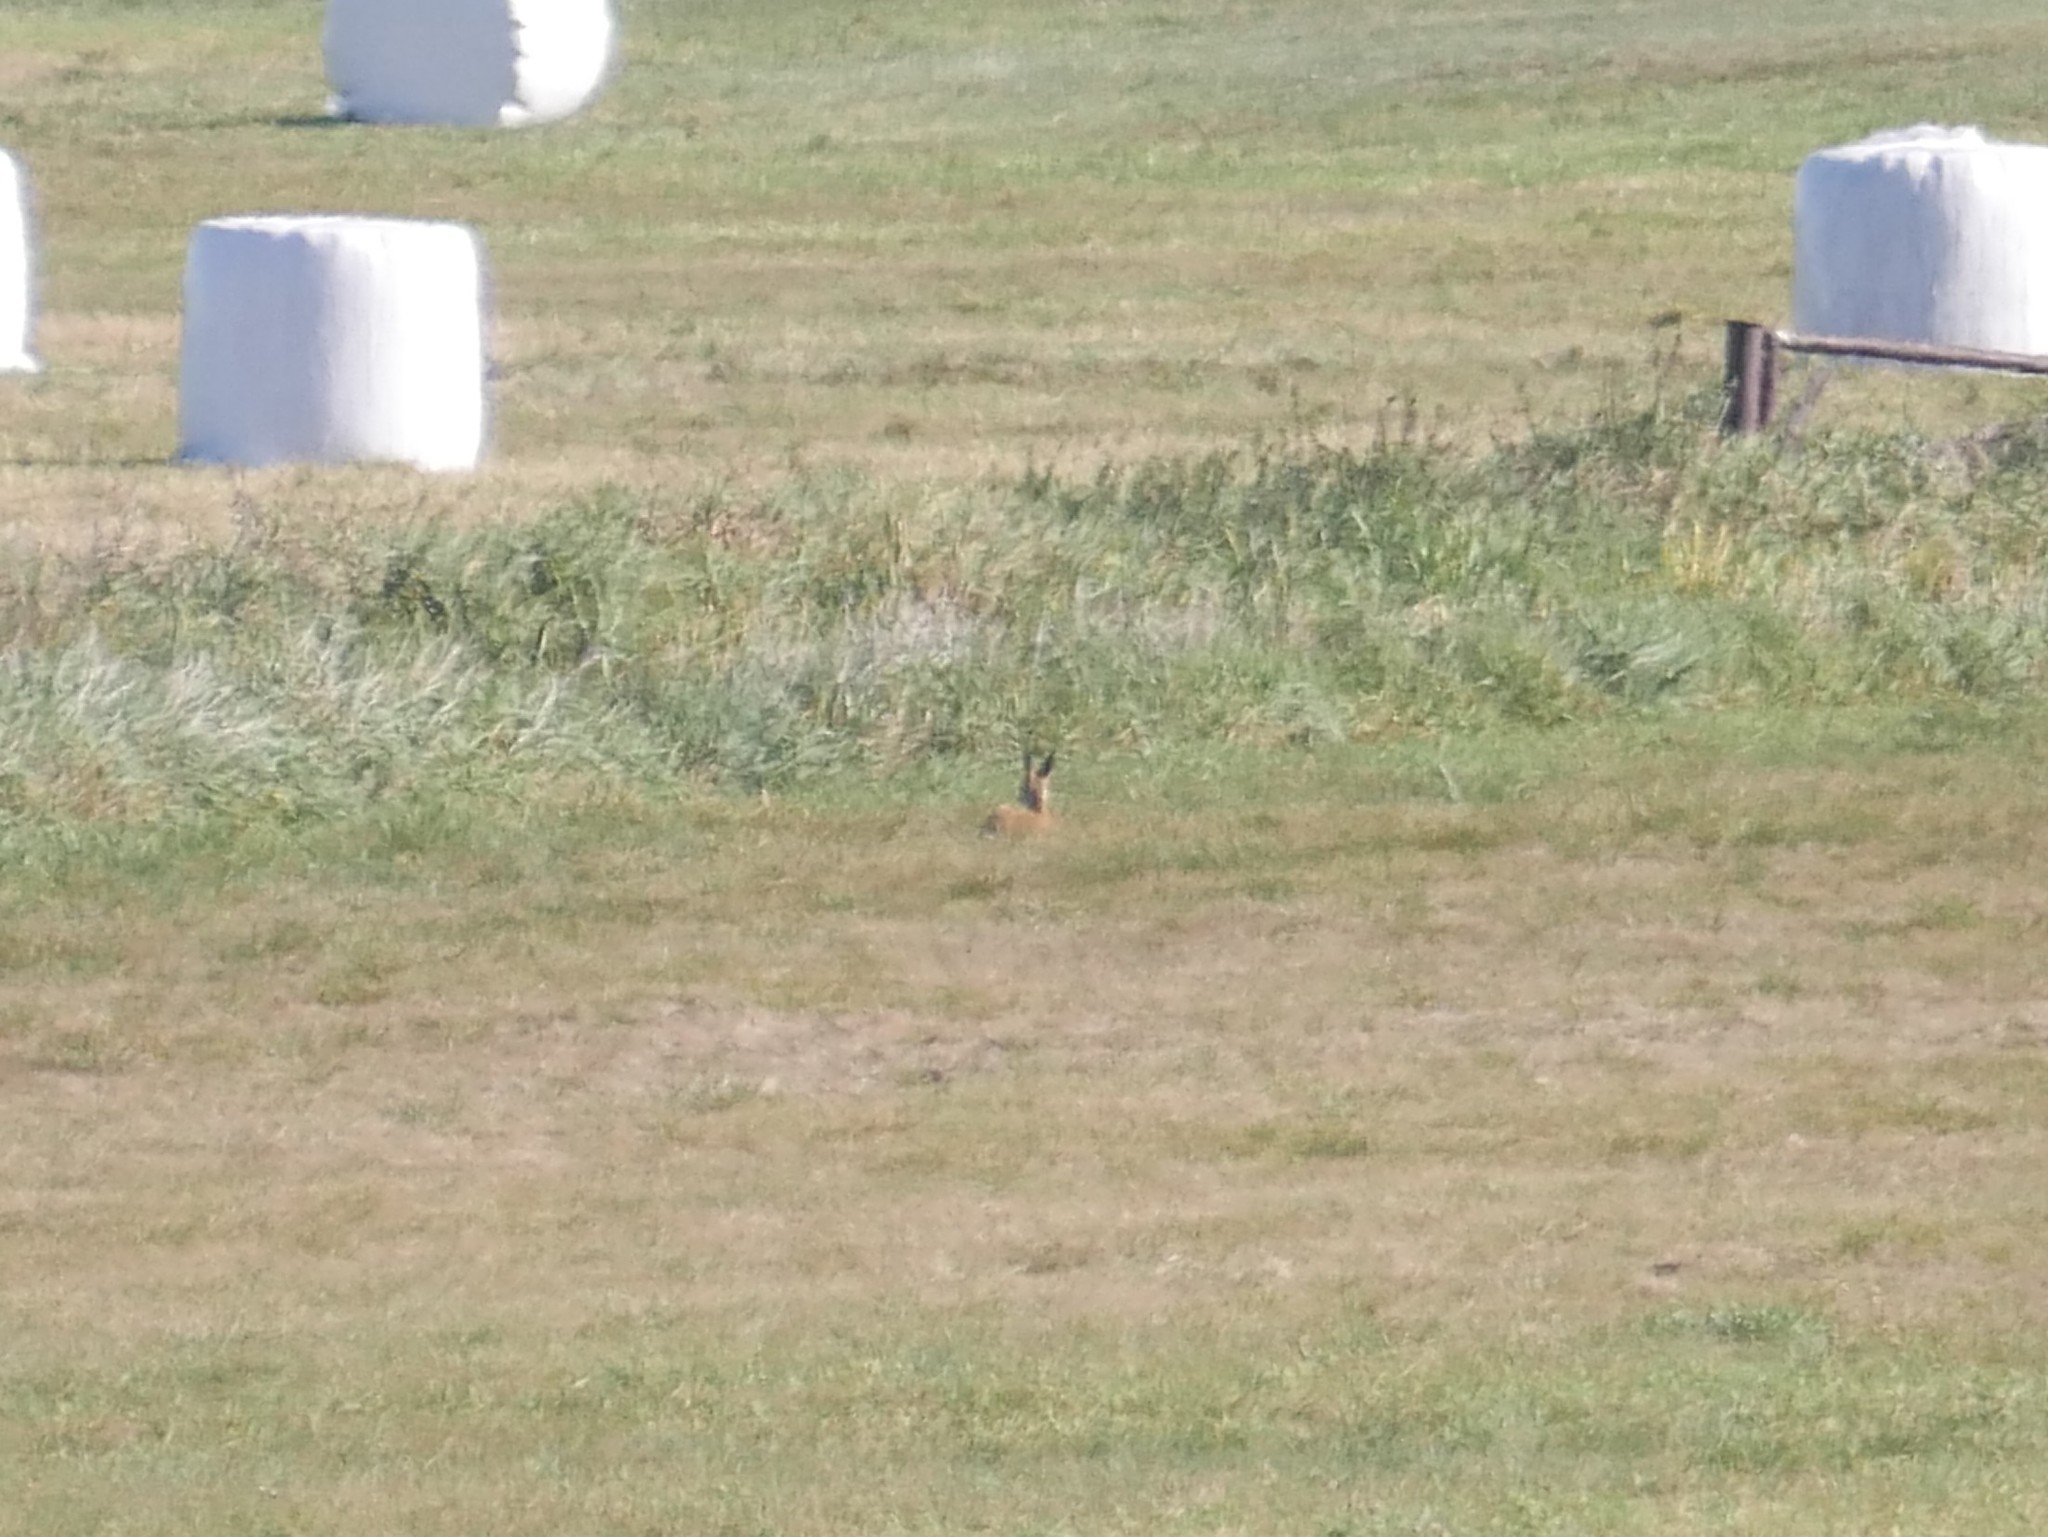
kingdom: Animalia
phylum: Chordata
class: Mammalia
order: Artiodactyla
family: Cervidae
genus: Capreolus
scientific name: Capreolus capreolus
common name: Western roe deer
